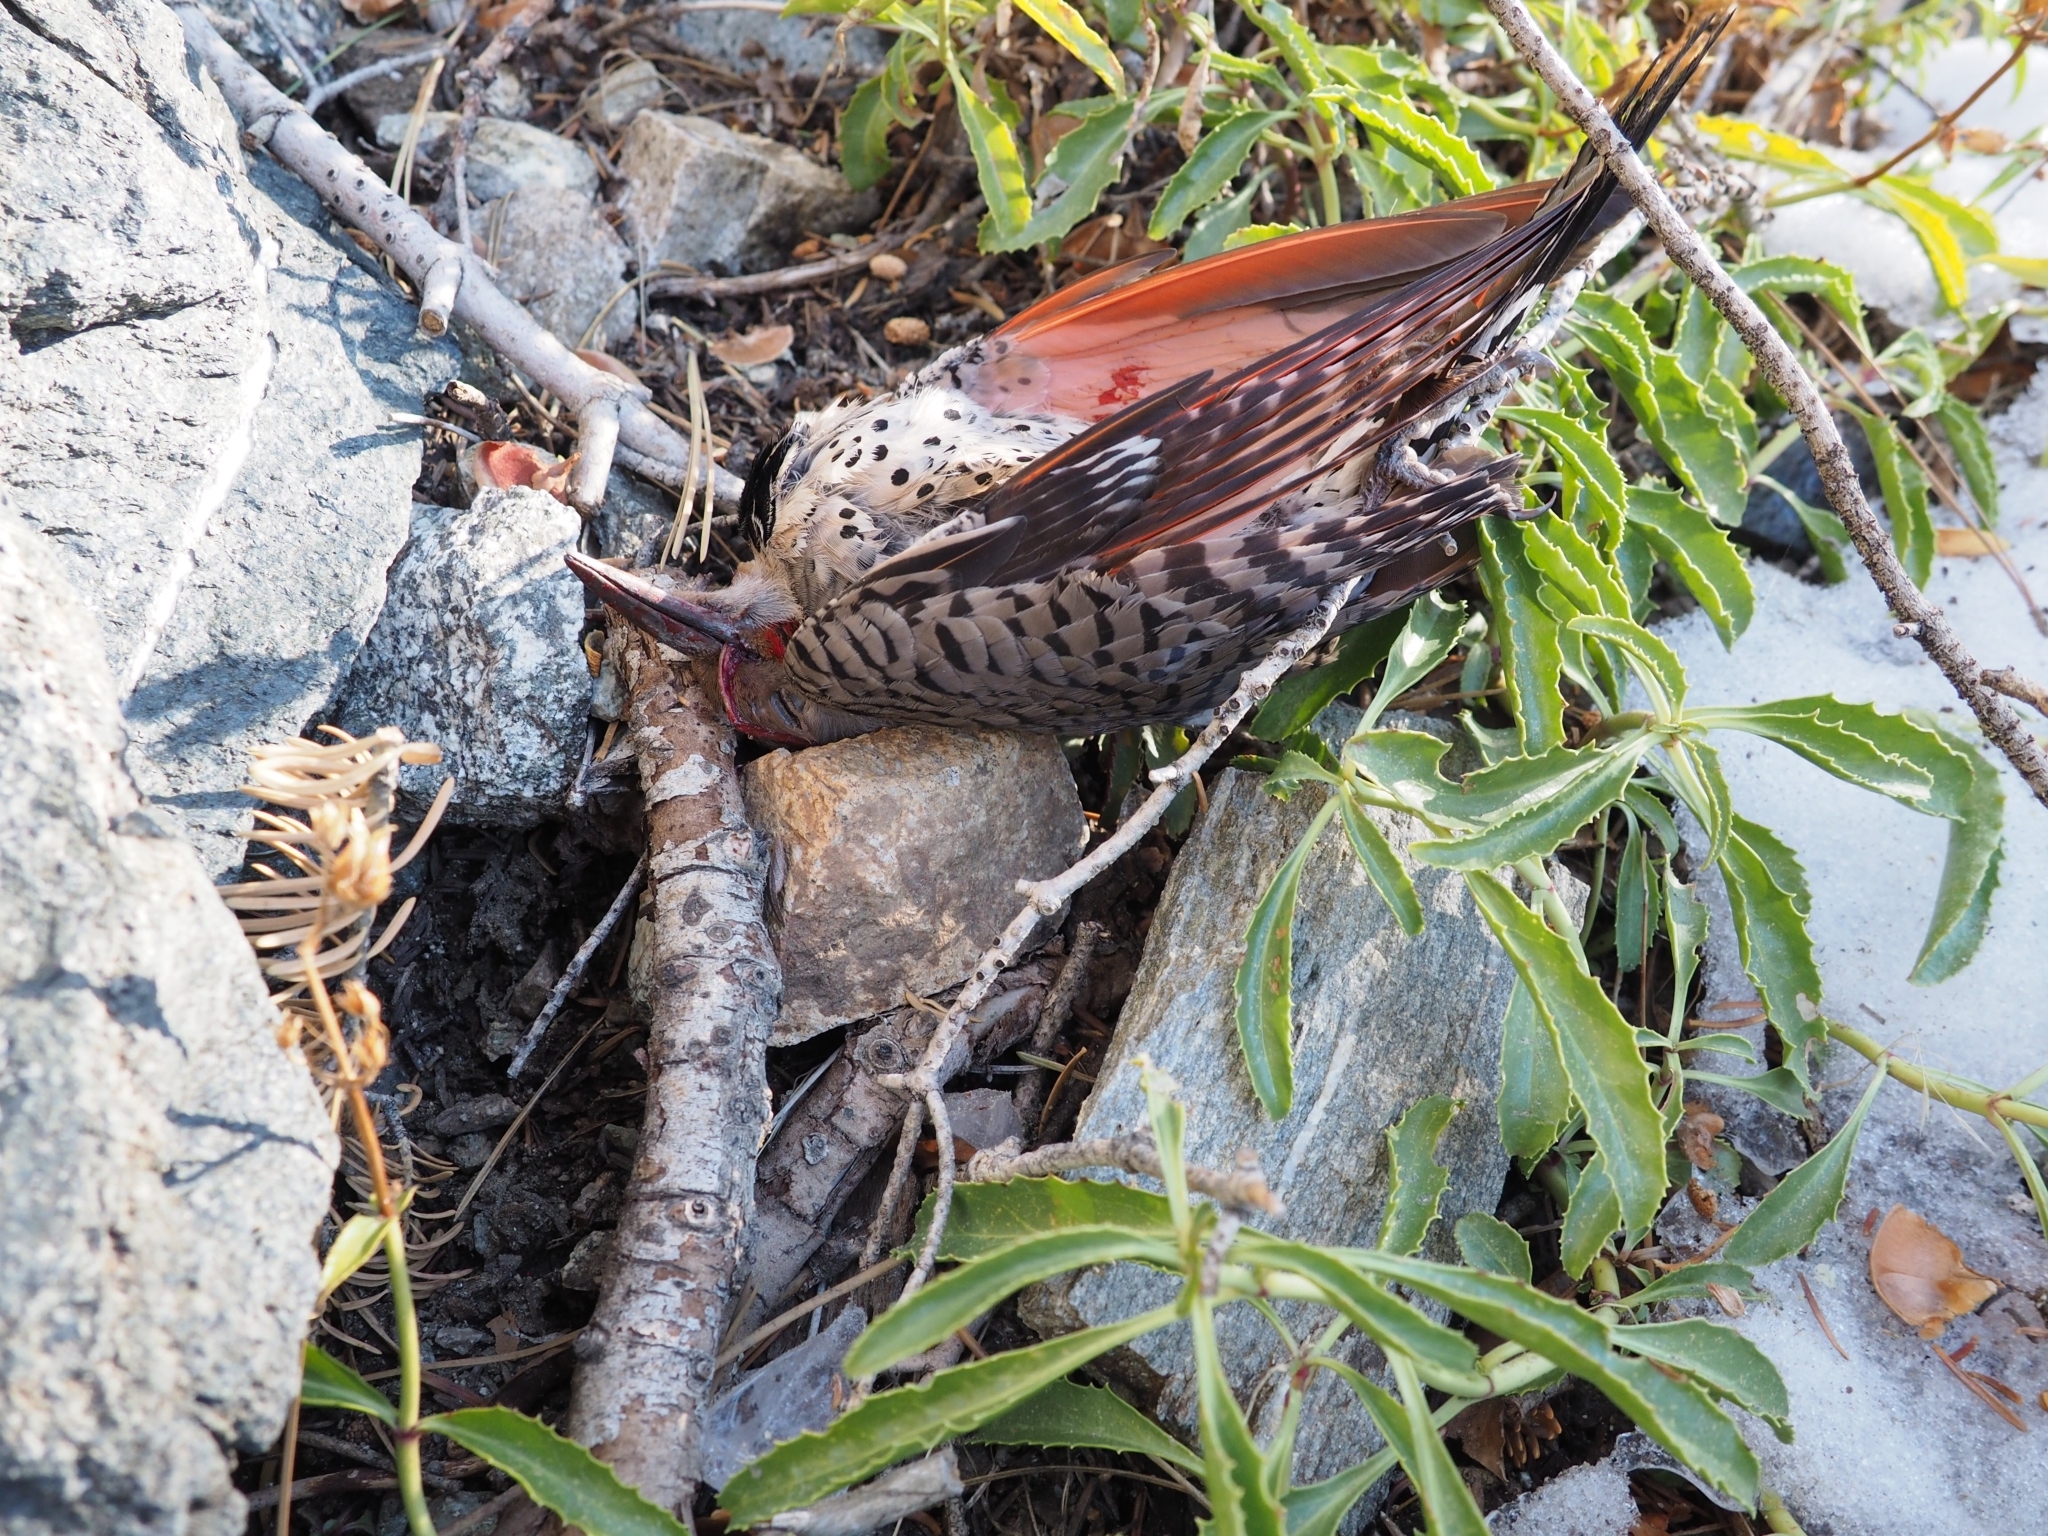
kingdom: Animalia
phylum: Chordata
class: Aves
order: Piciformes
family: Picidae
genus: Colaptes
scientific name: Colaptes auratus
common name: Northern flicker
